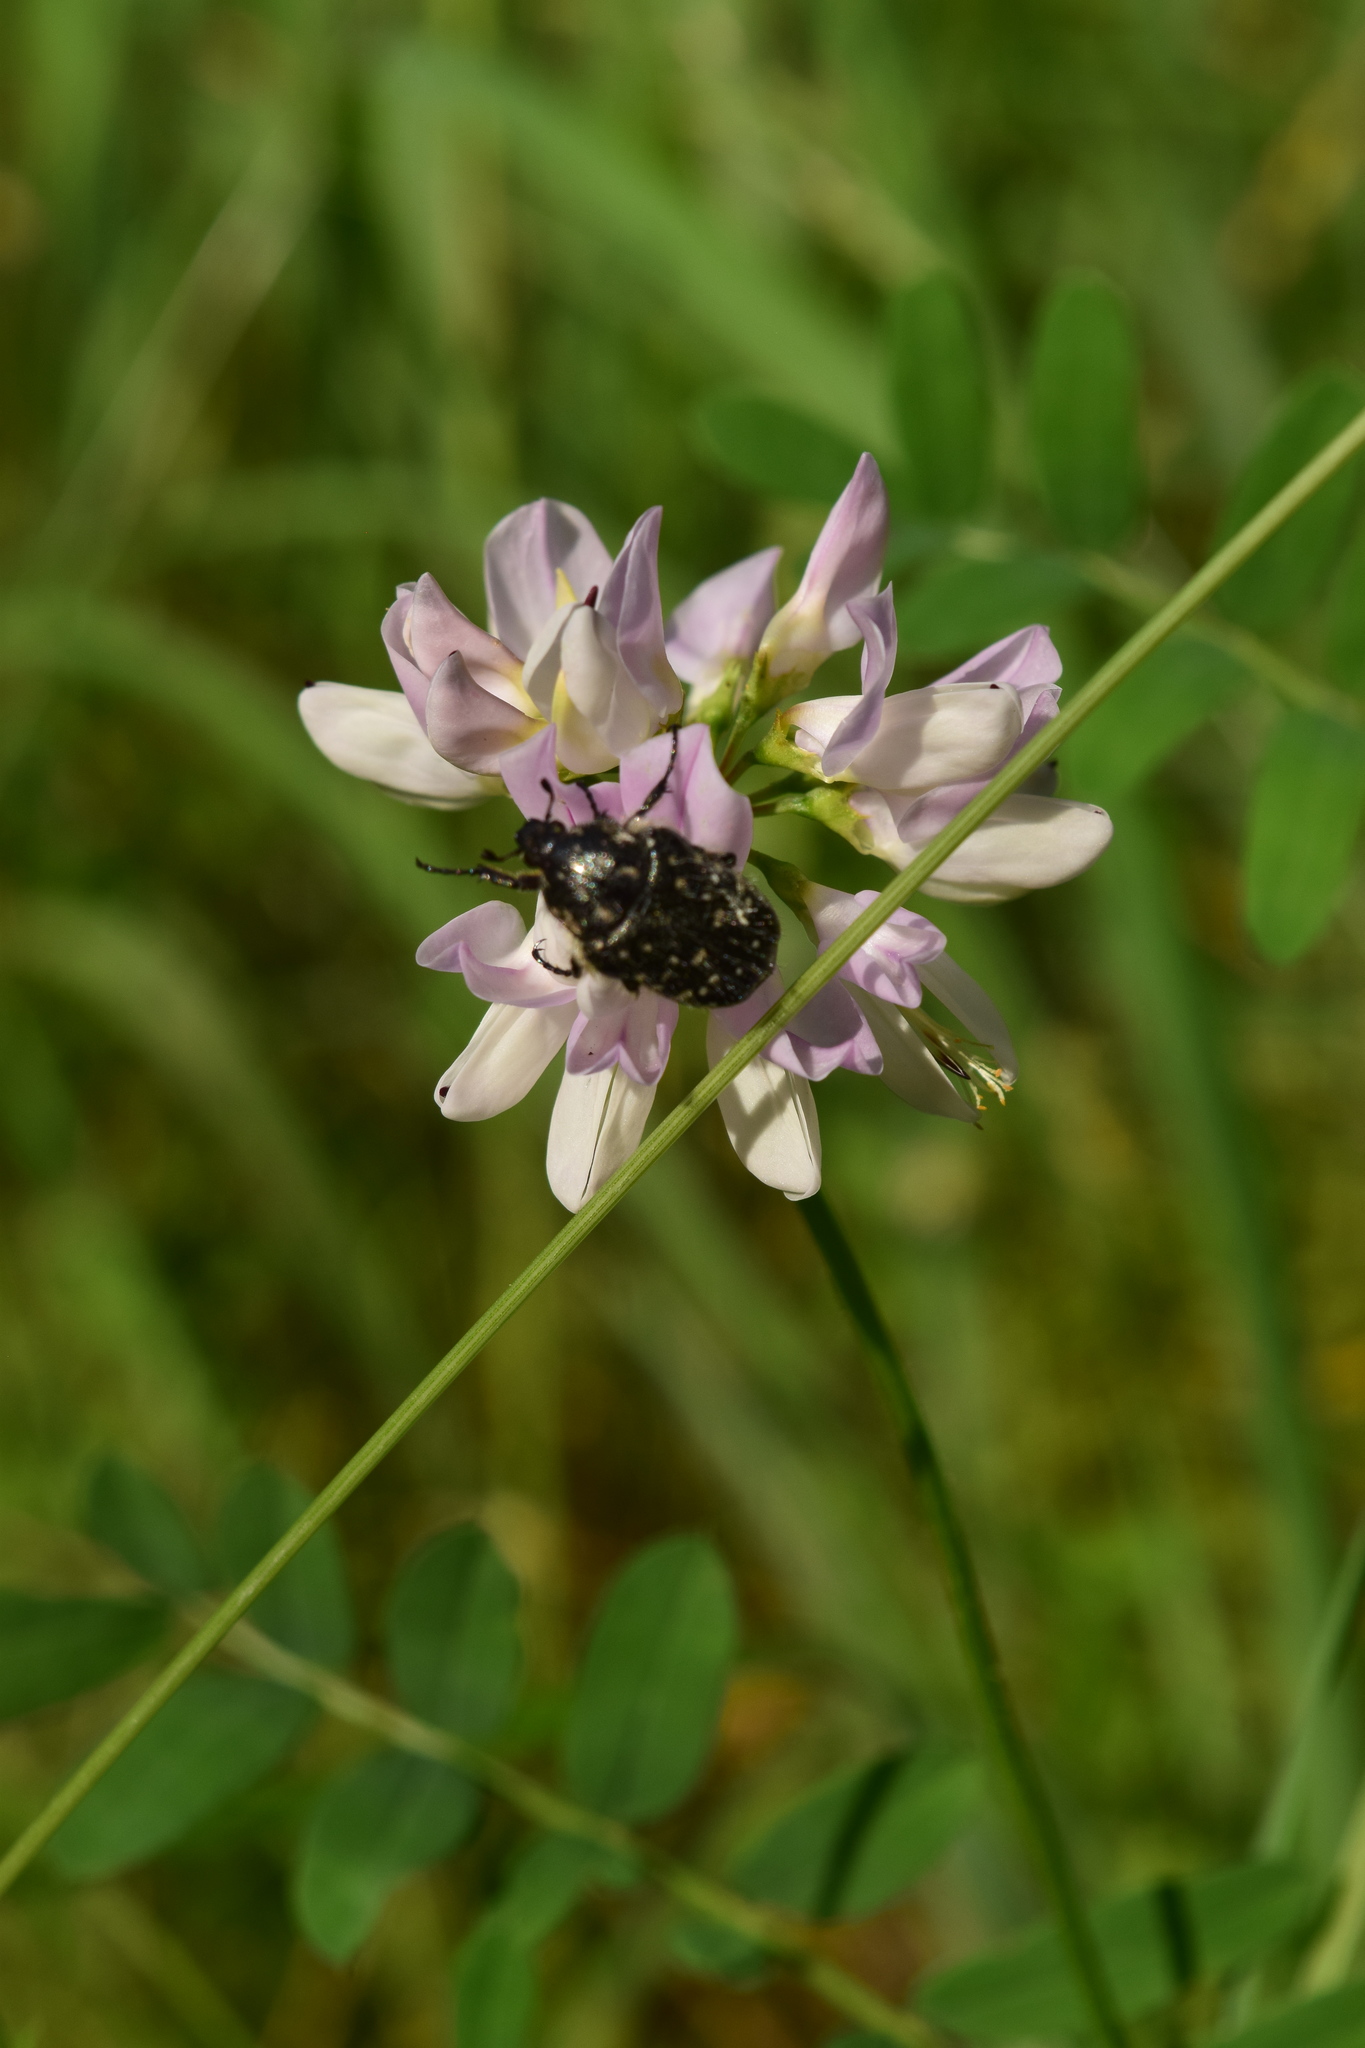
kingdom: Animalia
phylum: Arthropoda
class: Insecta
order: Coleoptera
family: Scarabaeidae
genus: Oxythyrea
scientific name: Oxythyrea funesta
